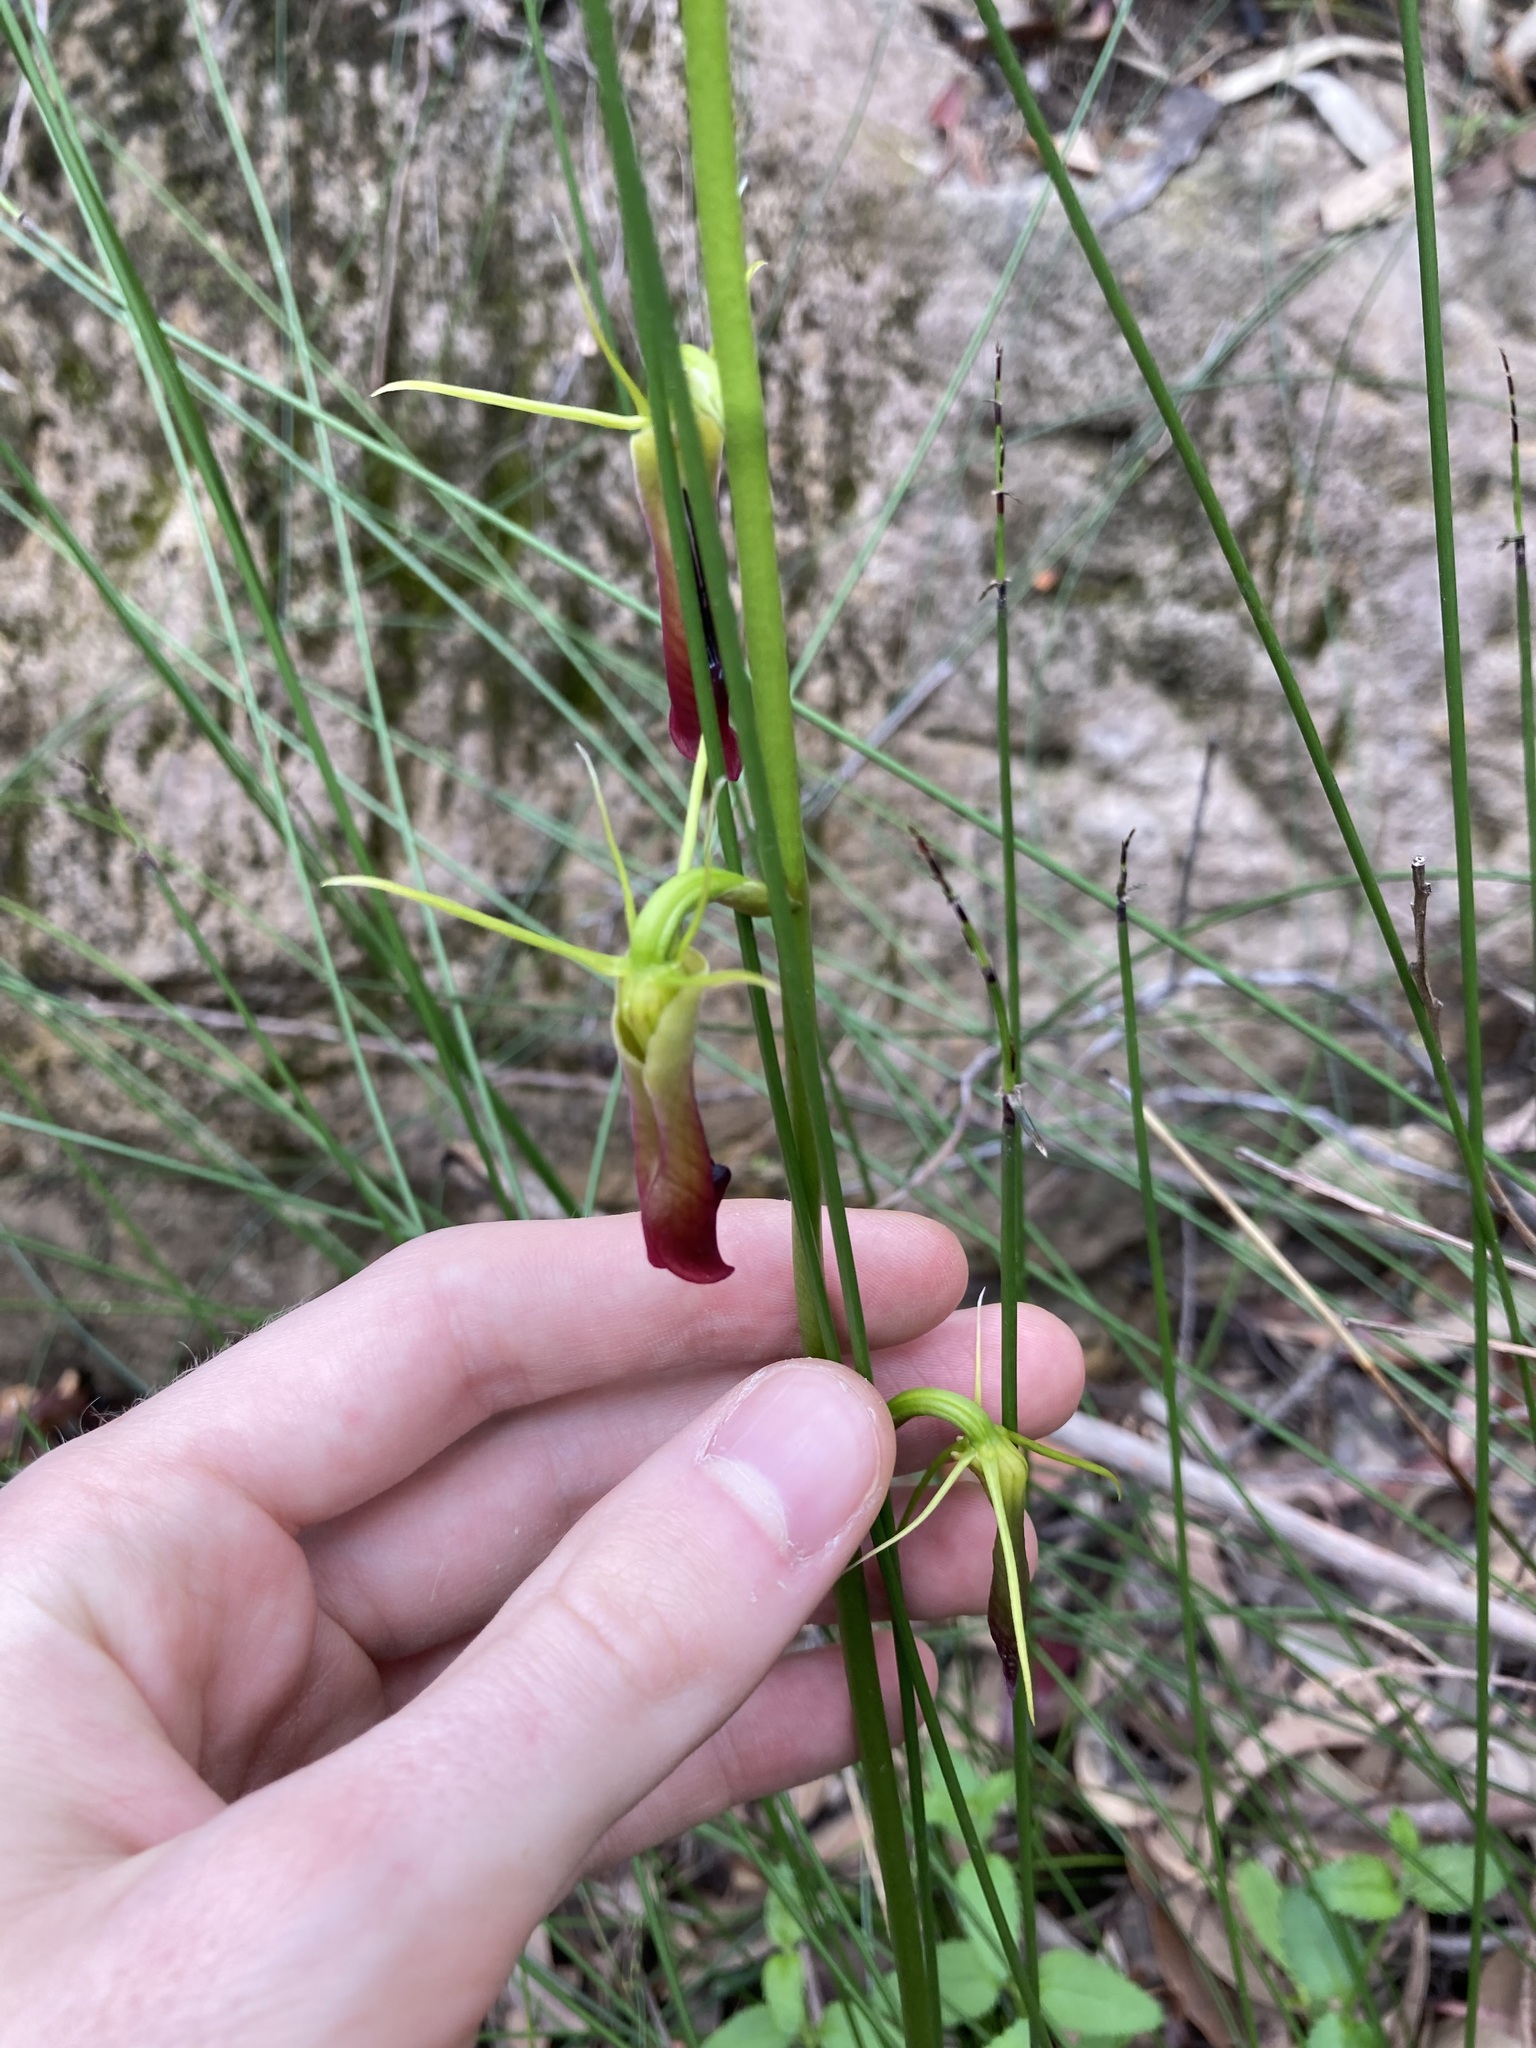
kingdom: Plantae
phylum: Tracheophyta
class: Liliopsida
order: Asparagales
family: Orchidaceae
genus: Cryptostylis
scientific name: Cryptostylis subulata
